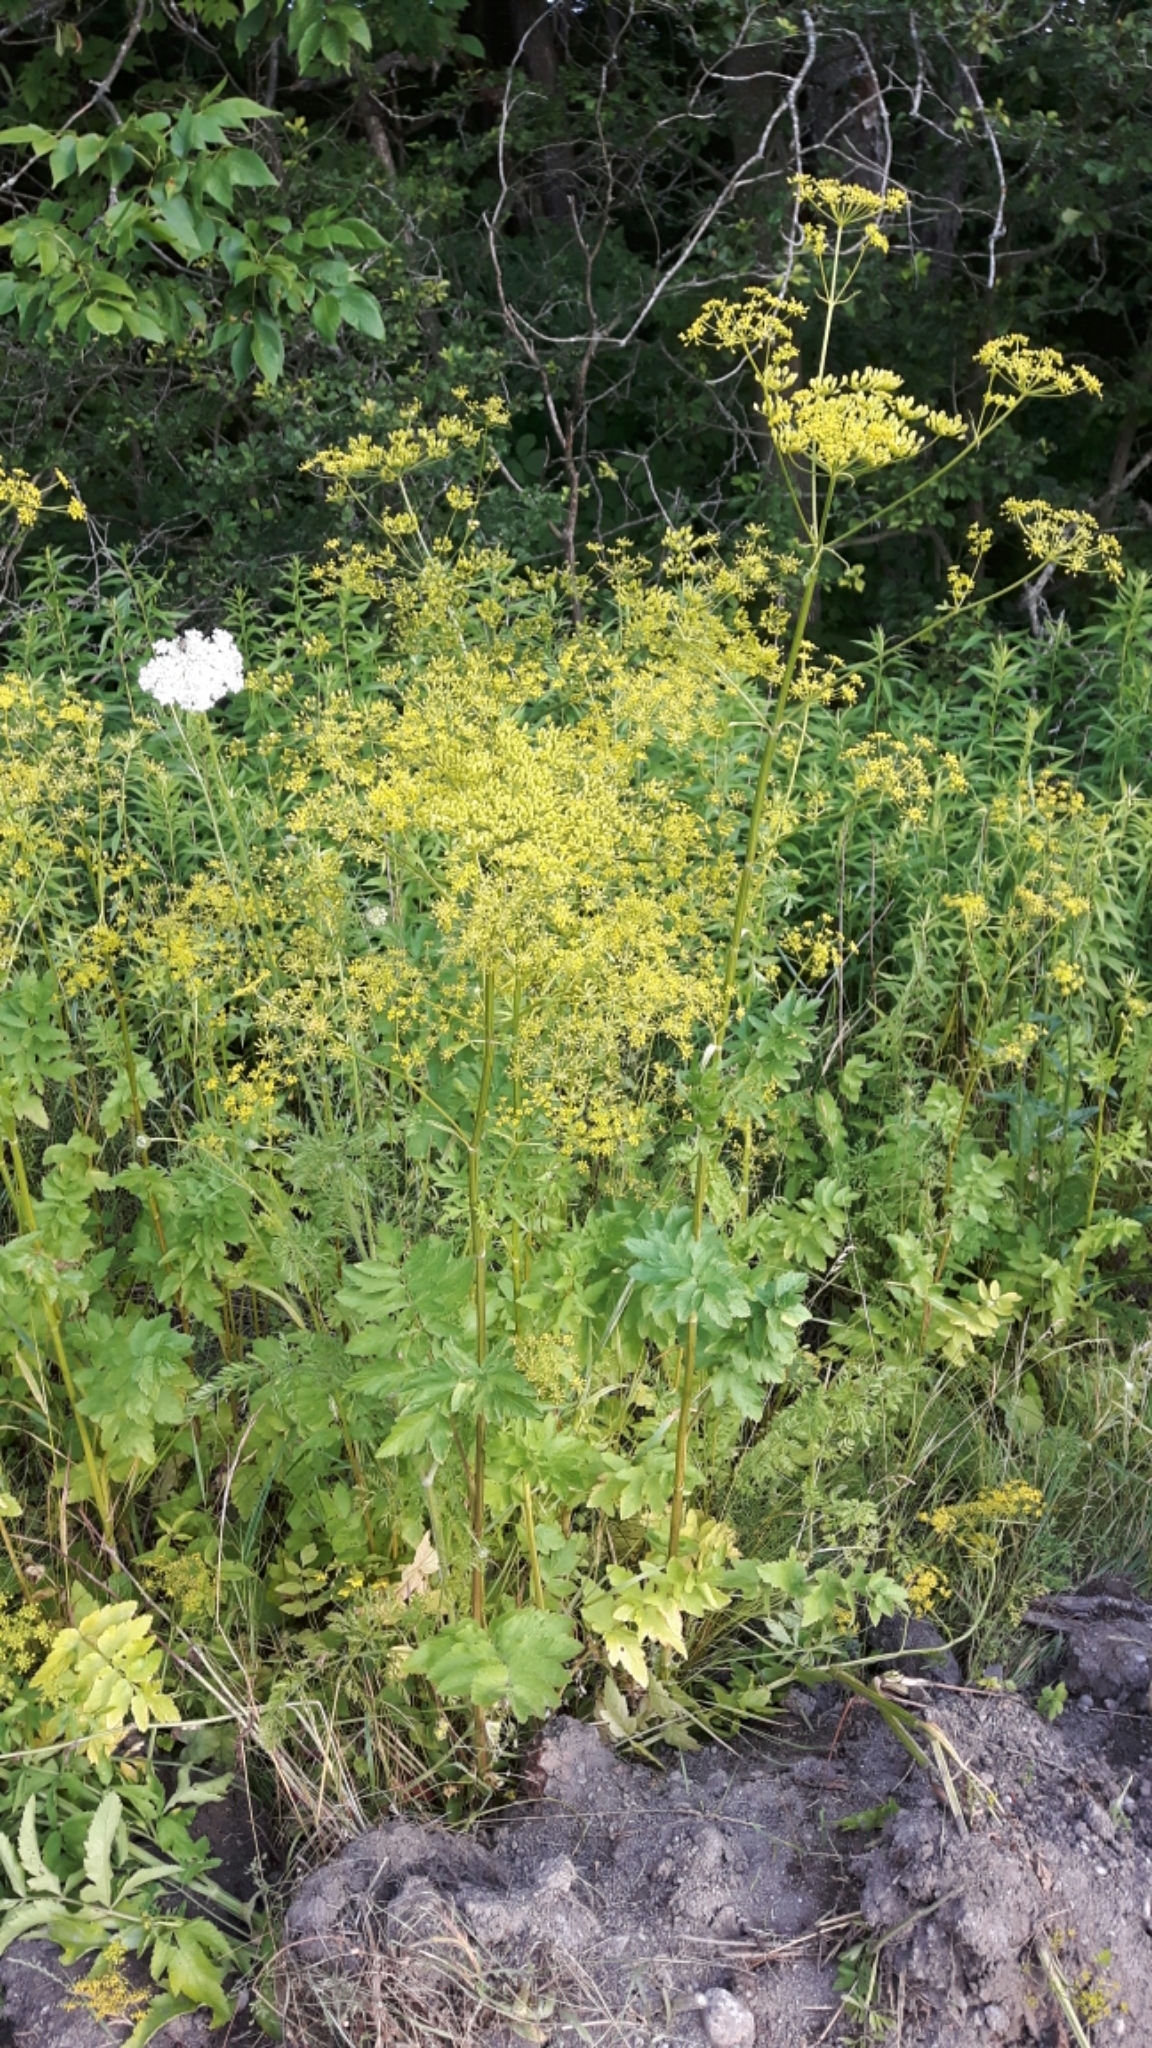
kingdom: Plantae
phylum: Tracheophyta
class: Magnoliopsida
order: Apiales
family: Apiaceae
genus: Pastinaca
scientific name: Pastinaca sativa
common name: Wild parsnip
